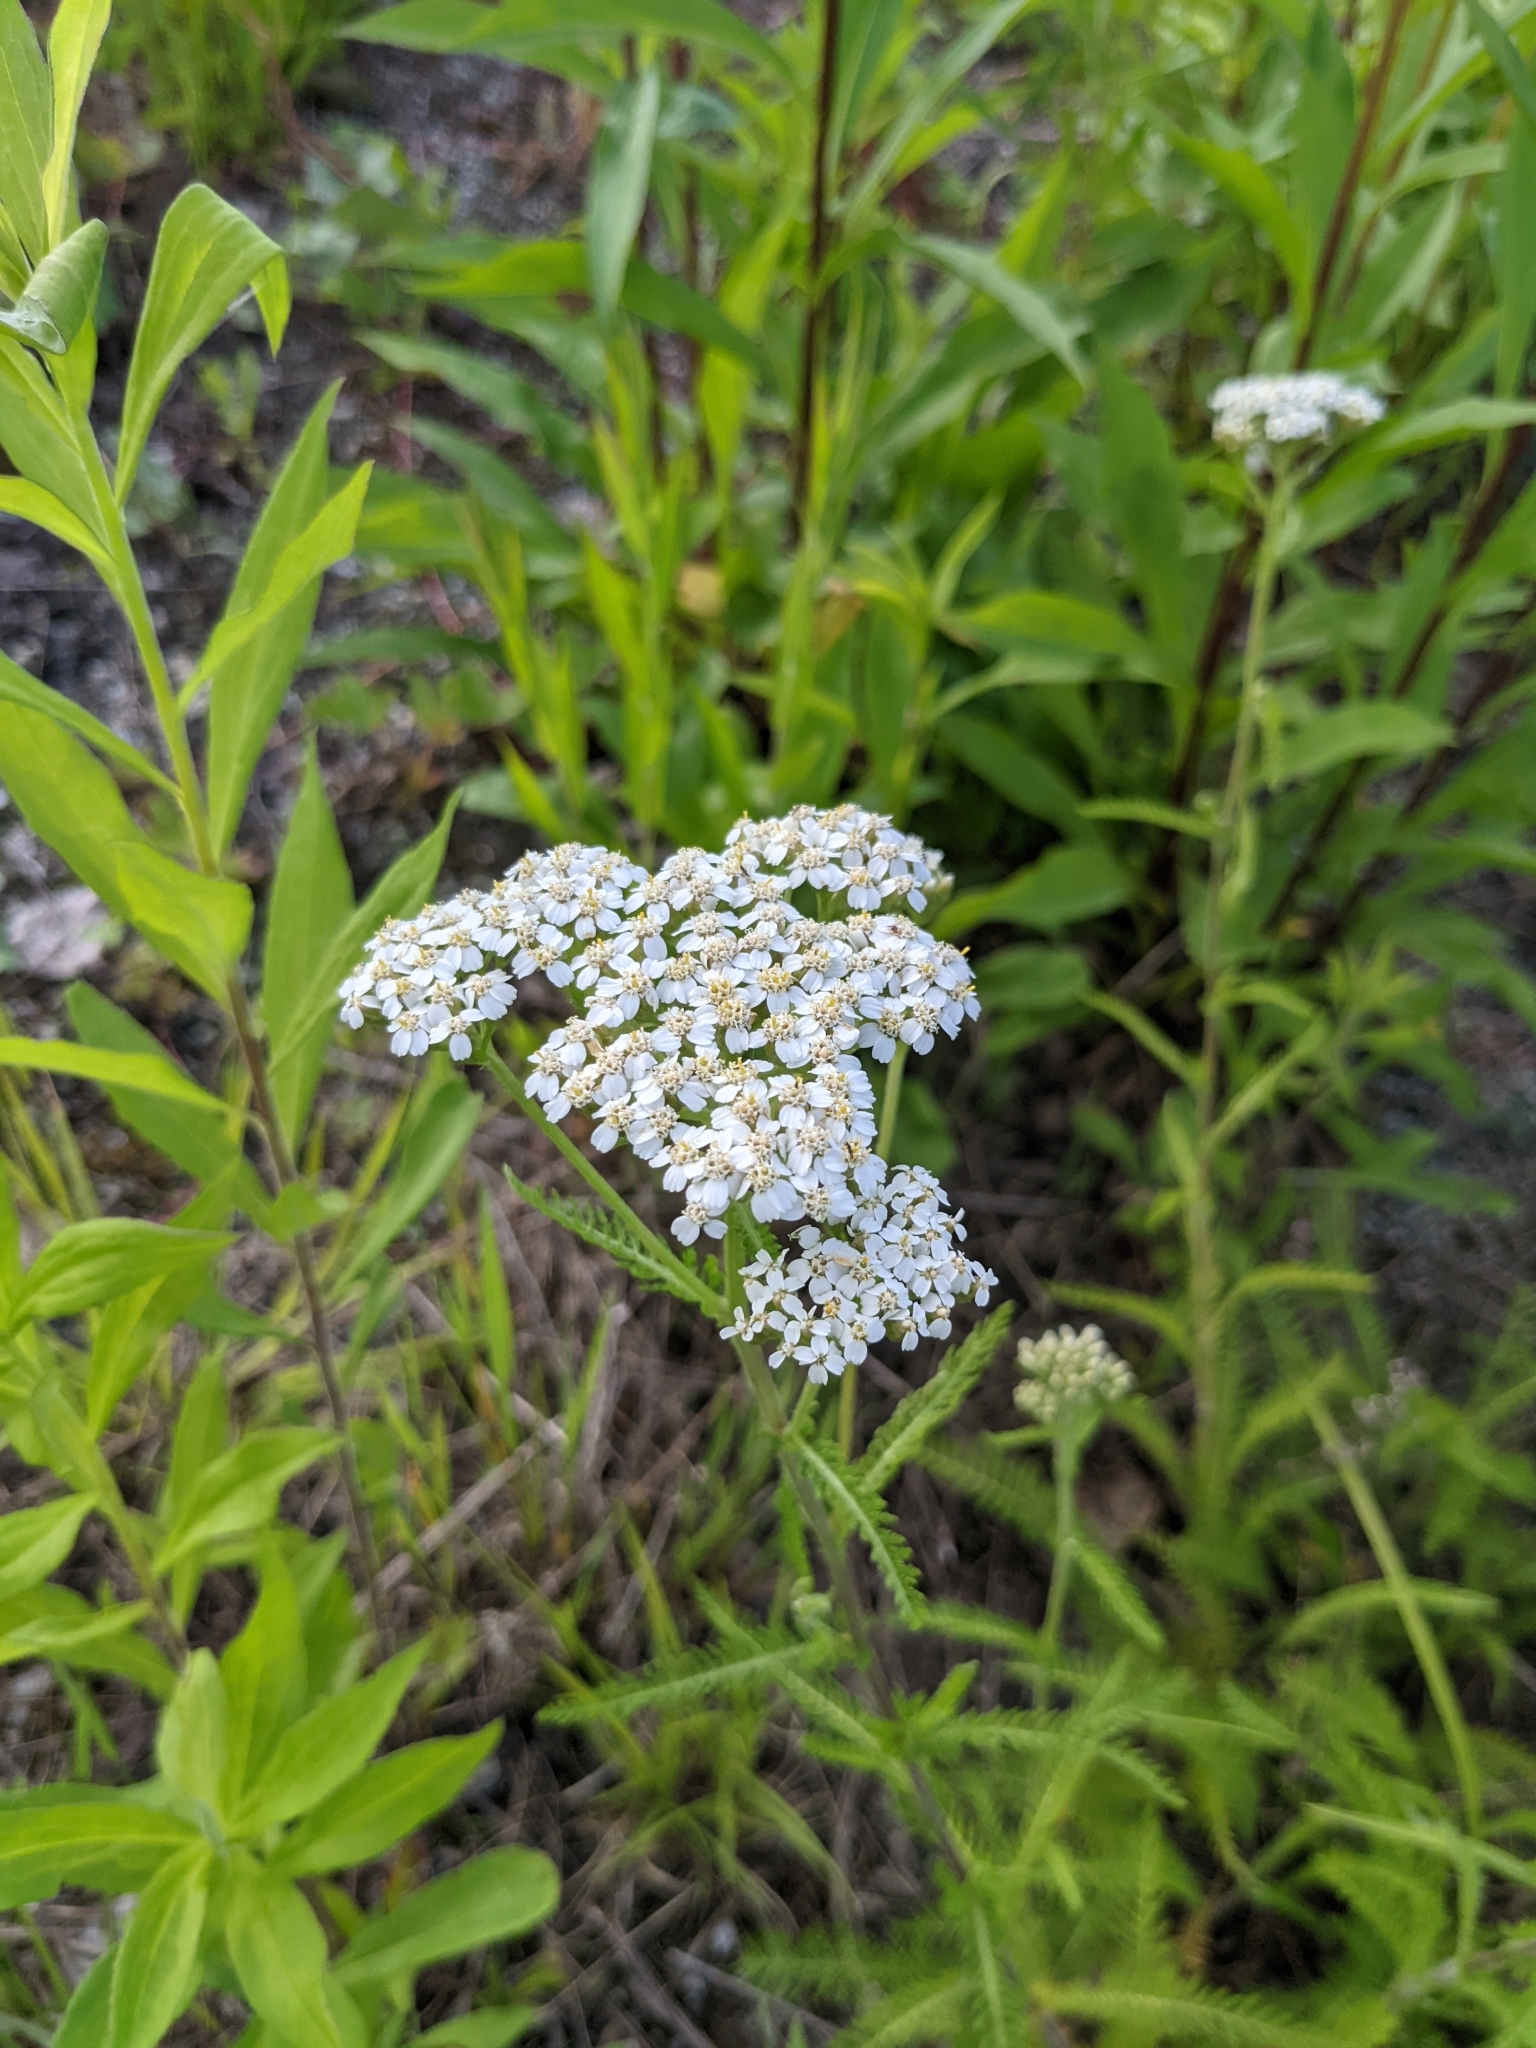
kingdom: Plantae
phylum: Tracheophyta
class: Magnoliopsida
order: Asterales
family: Asteraceae
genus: Achillea
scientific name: Achillea millefolium
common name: Yarrow
